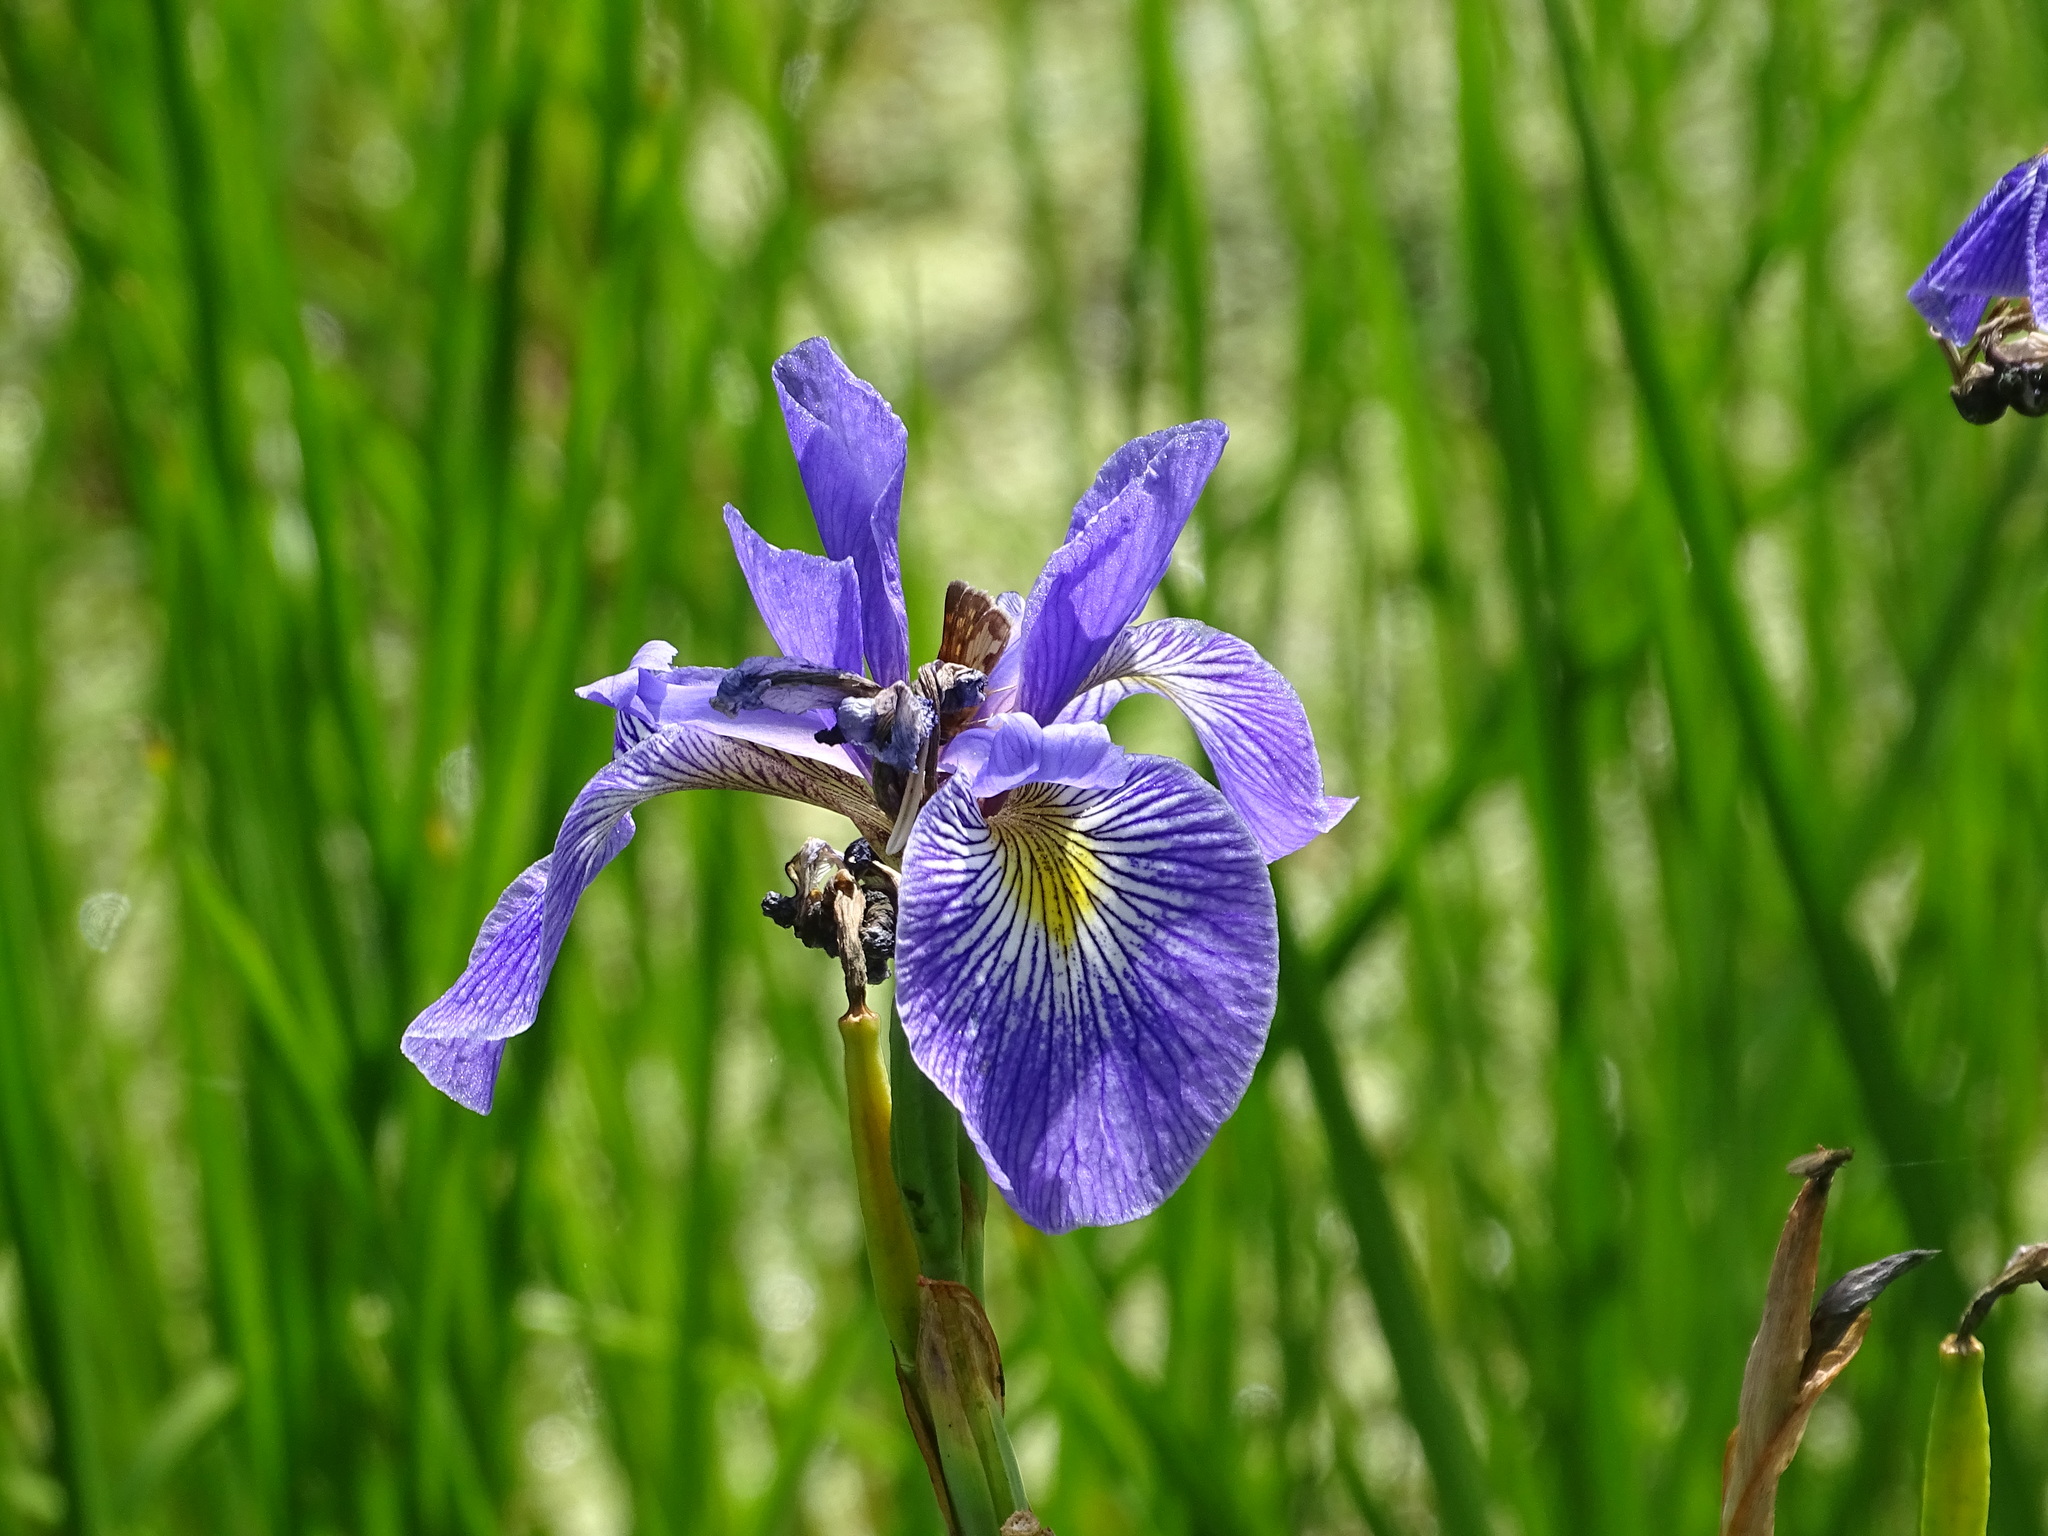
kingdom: Animalia
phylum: Arthropoda
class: Insecta
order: Lepidoptera
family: Hesperiidae
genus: Polites
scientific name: Polites coras
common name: Peck's skipper
